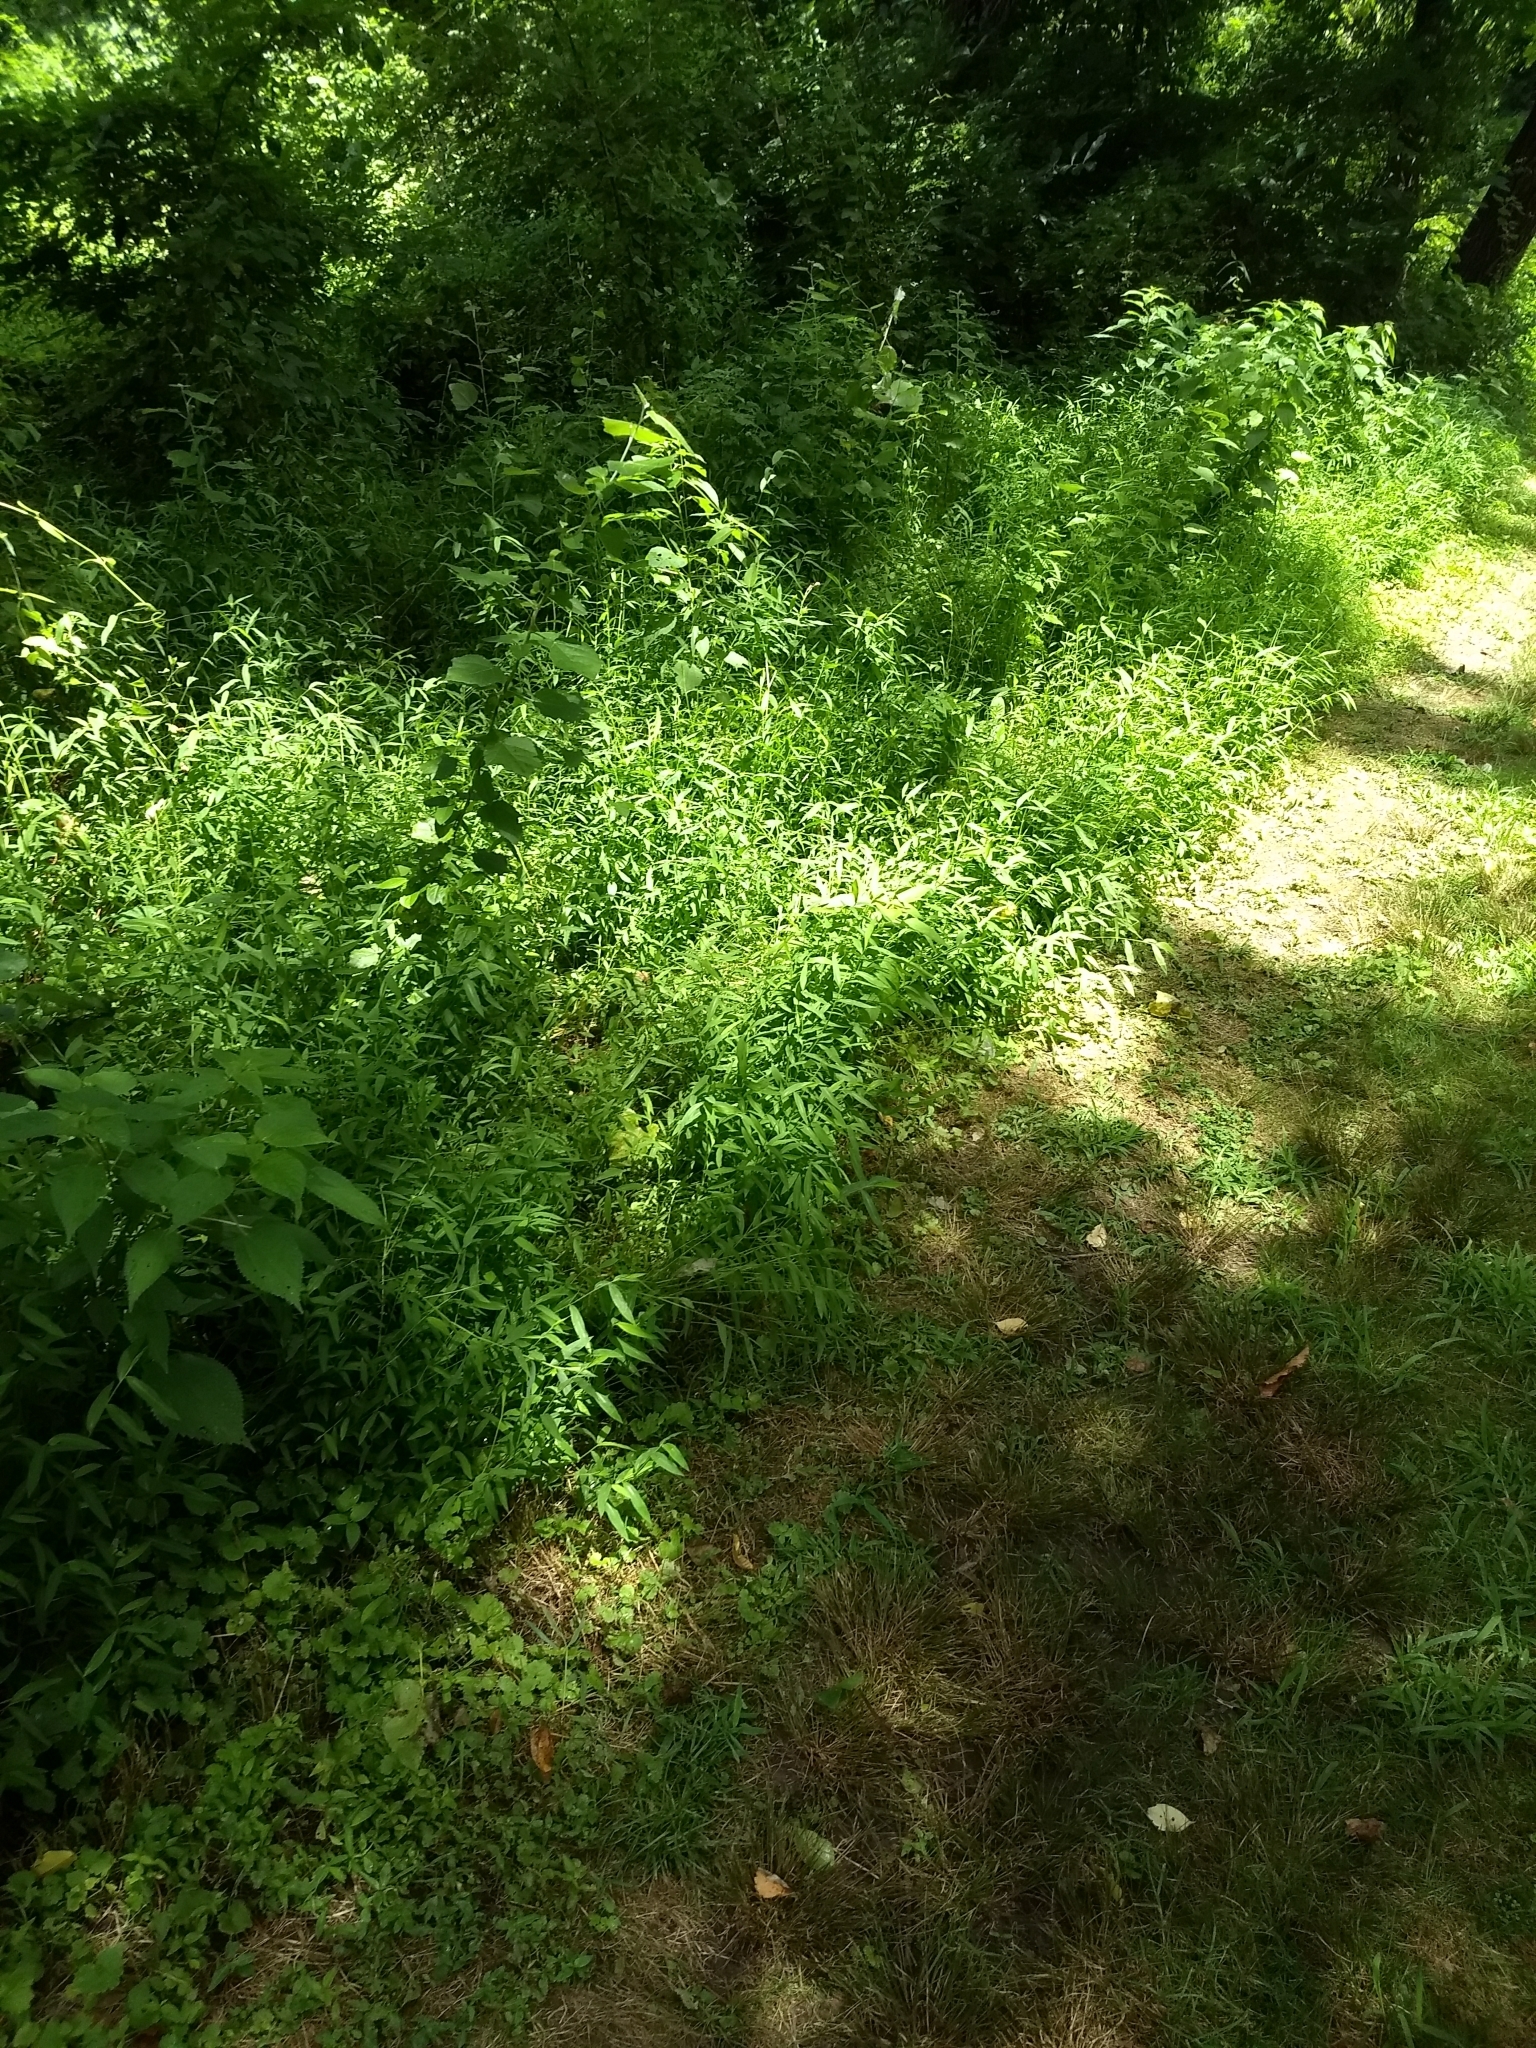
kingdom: Plantae
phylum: Tracheophyta
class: Liliopsida
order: Poales
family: Poaceae
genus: Microstegium
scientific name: Microstegium vimineum
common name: Japanese stiltgrass
